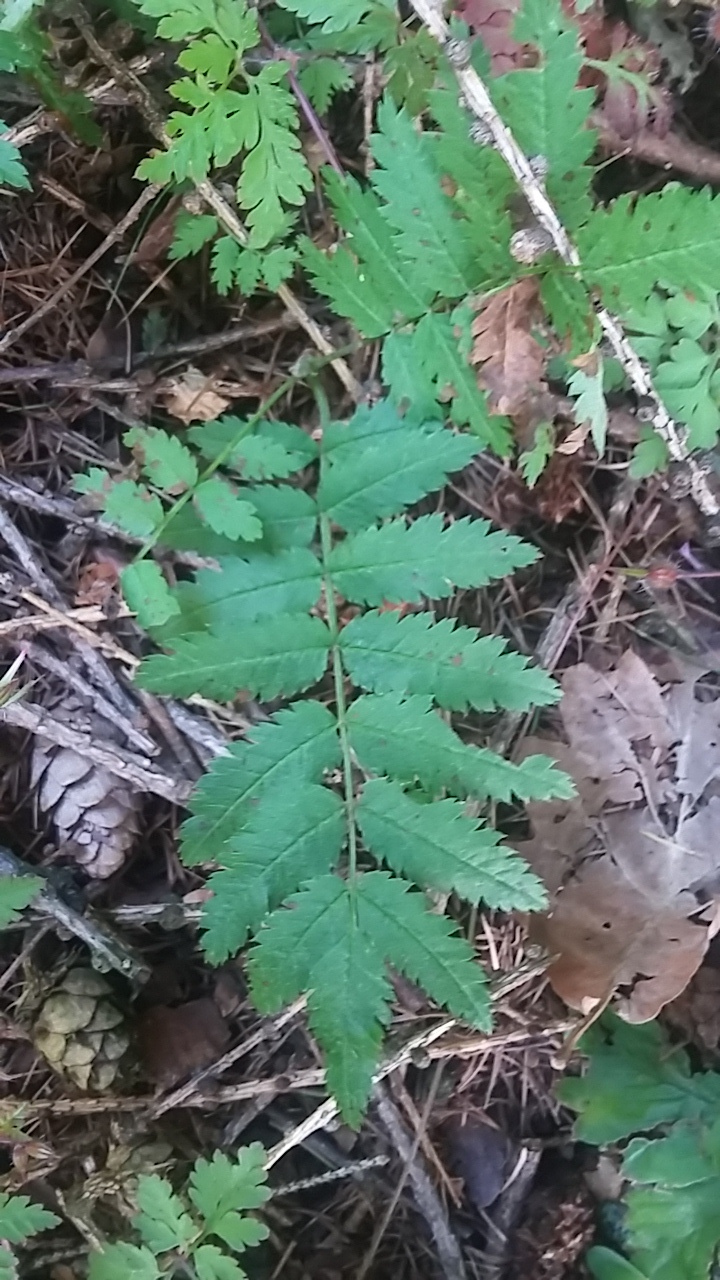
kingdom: Plantae
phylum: Tracheophyta
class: Magnoliopsida
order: Rosales
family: Rosaceae
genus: Sorbus
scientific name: Sorbus aucuparia
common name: Rowan
